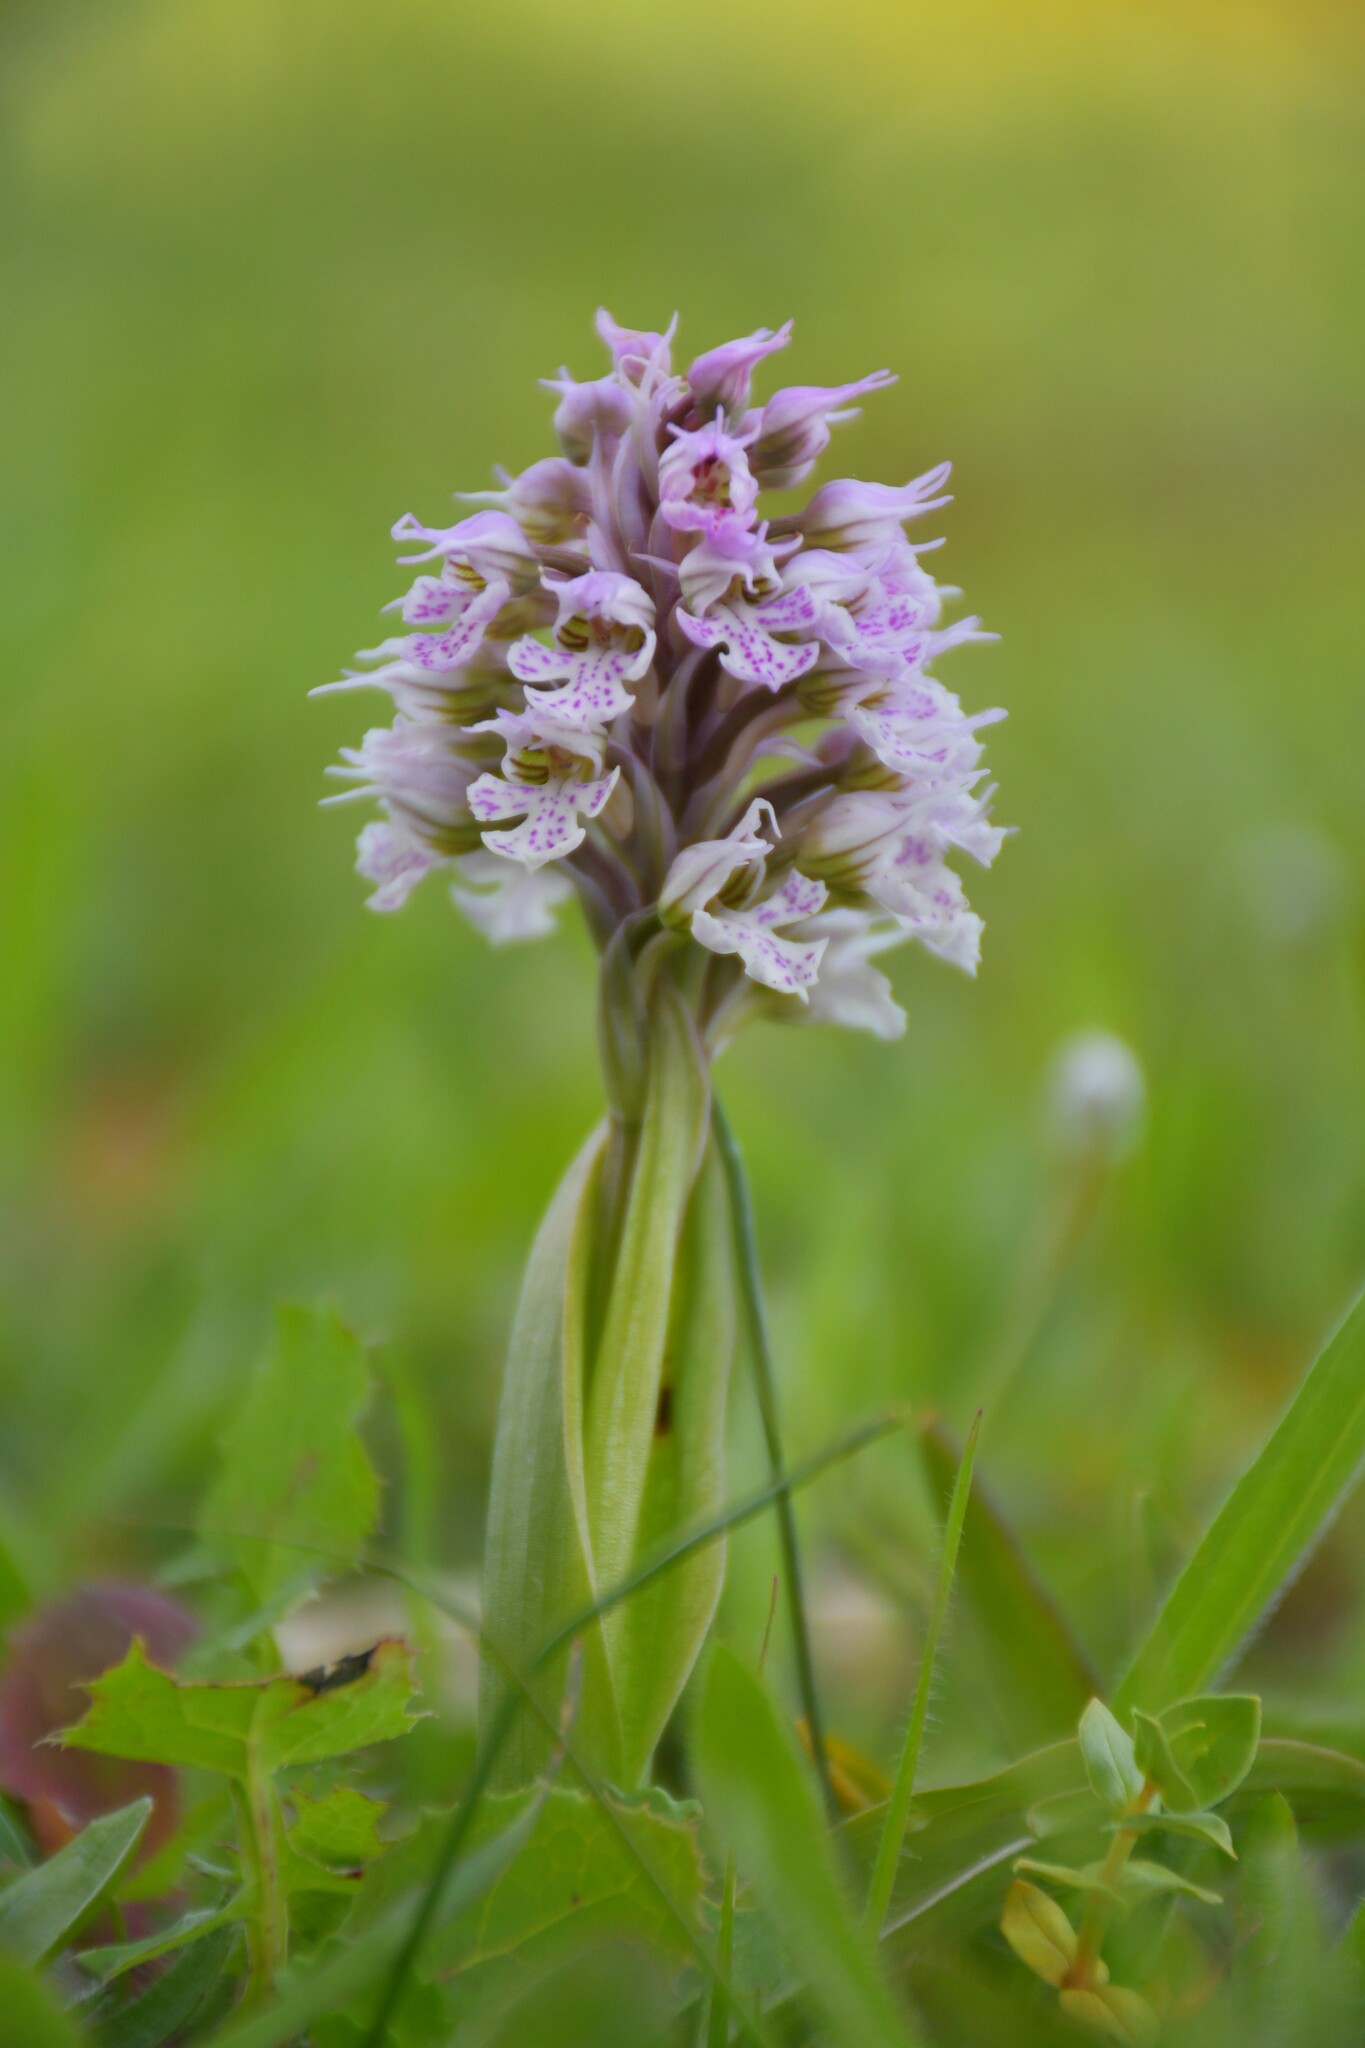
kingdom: Plantae
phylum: Tracheophyta
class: Liliopsida
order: Asparagales
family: Orchidaceae
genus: Neotinea
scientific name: Neotinea conica
